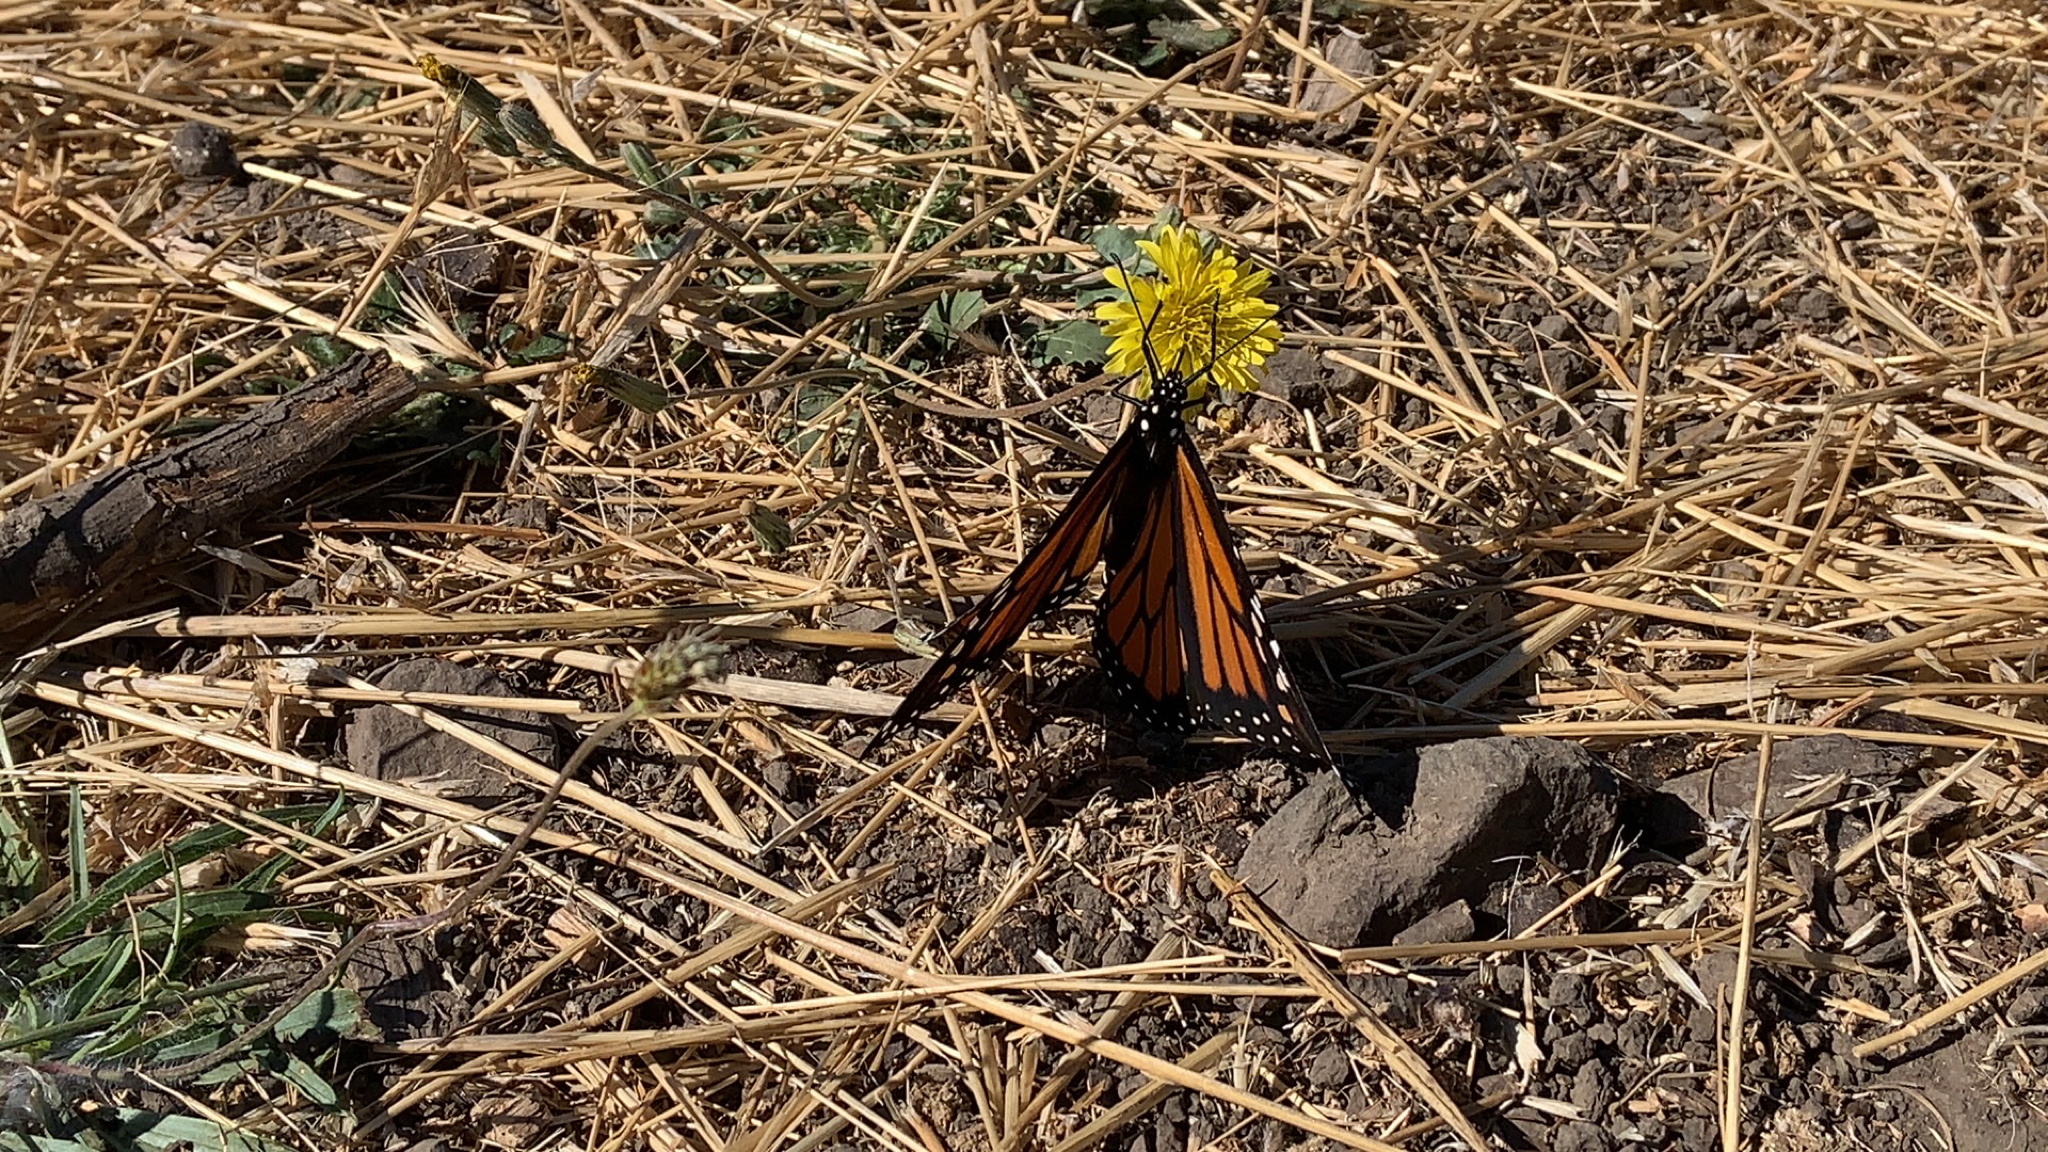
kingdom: Animalia
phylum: Arthropoda
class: Insecta
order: Lepidoptera
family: Nymphalidae
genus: Danaus
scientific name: Danaus plexippus
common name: Monarch
